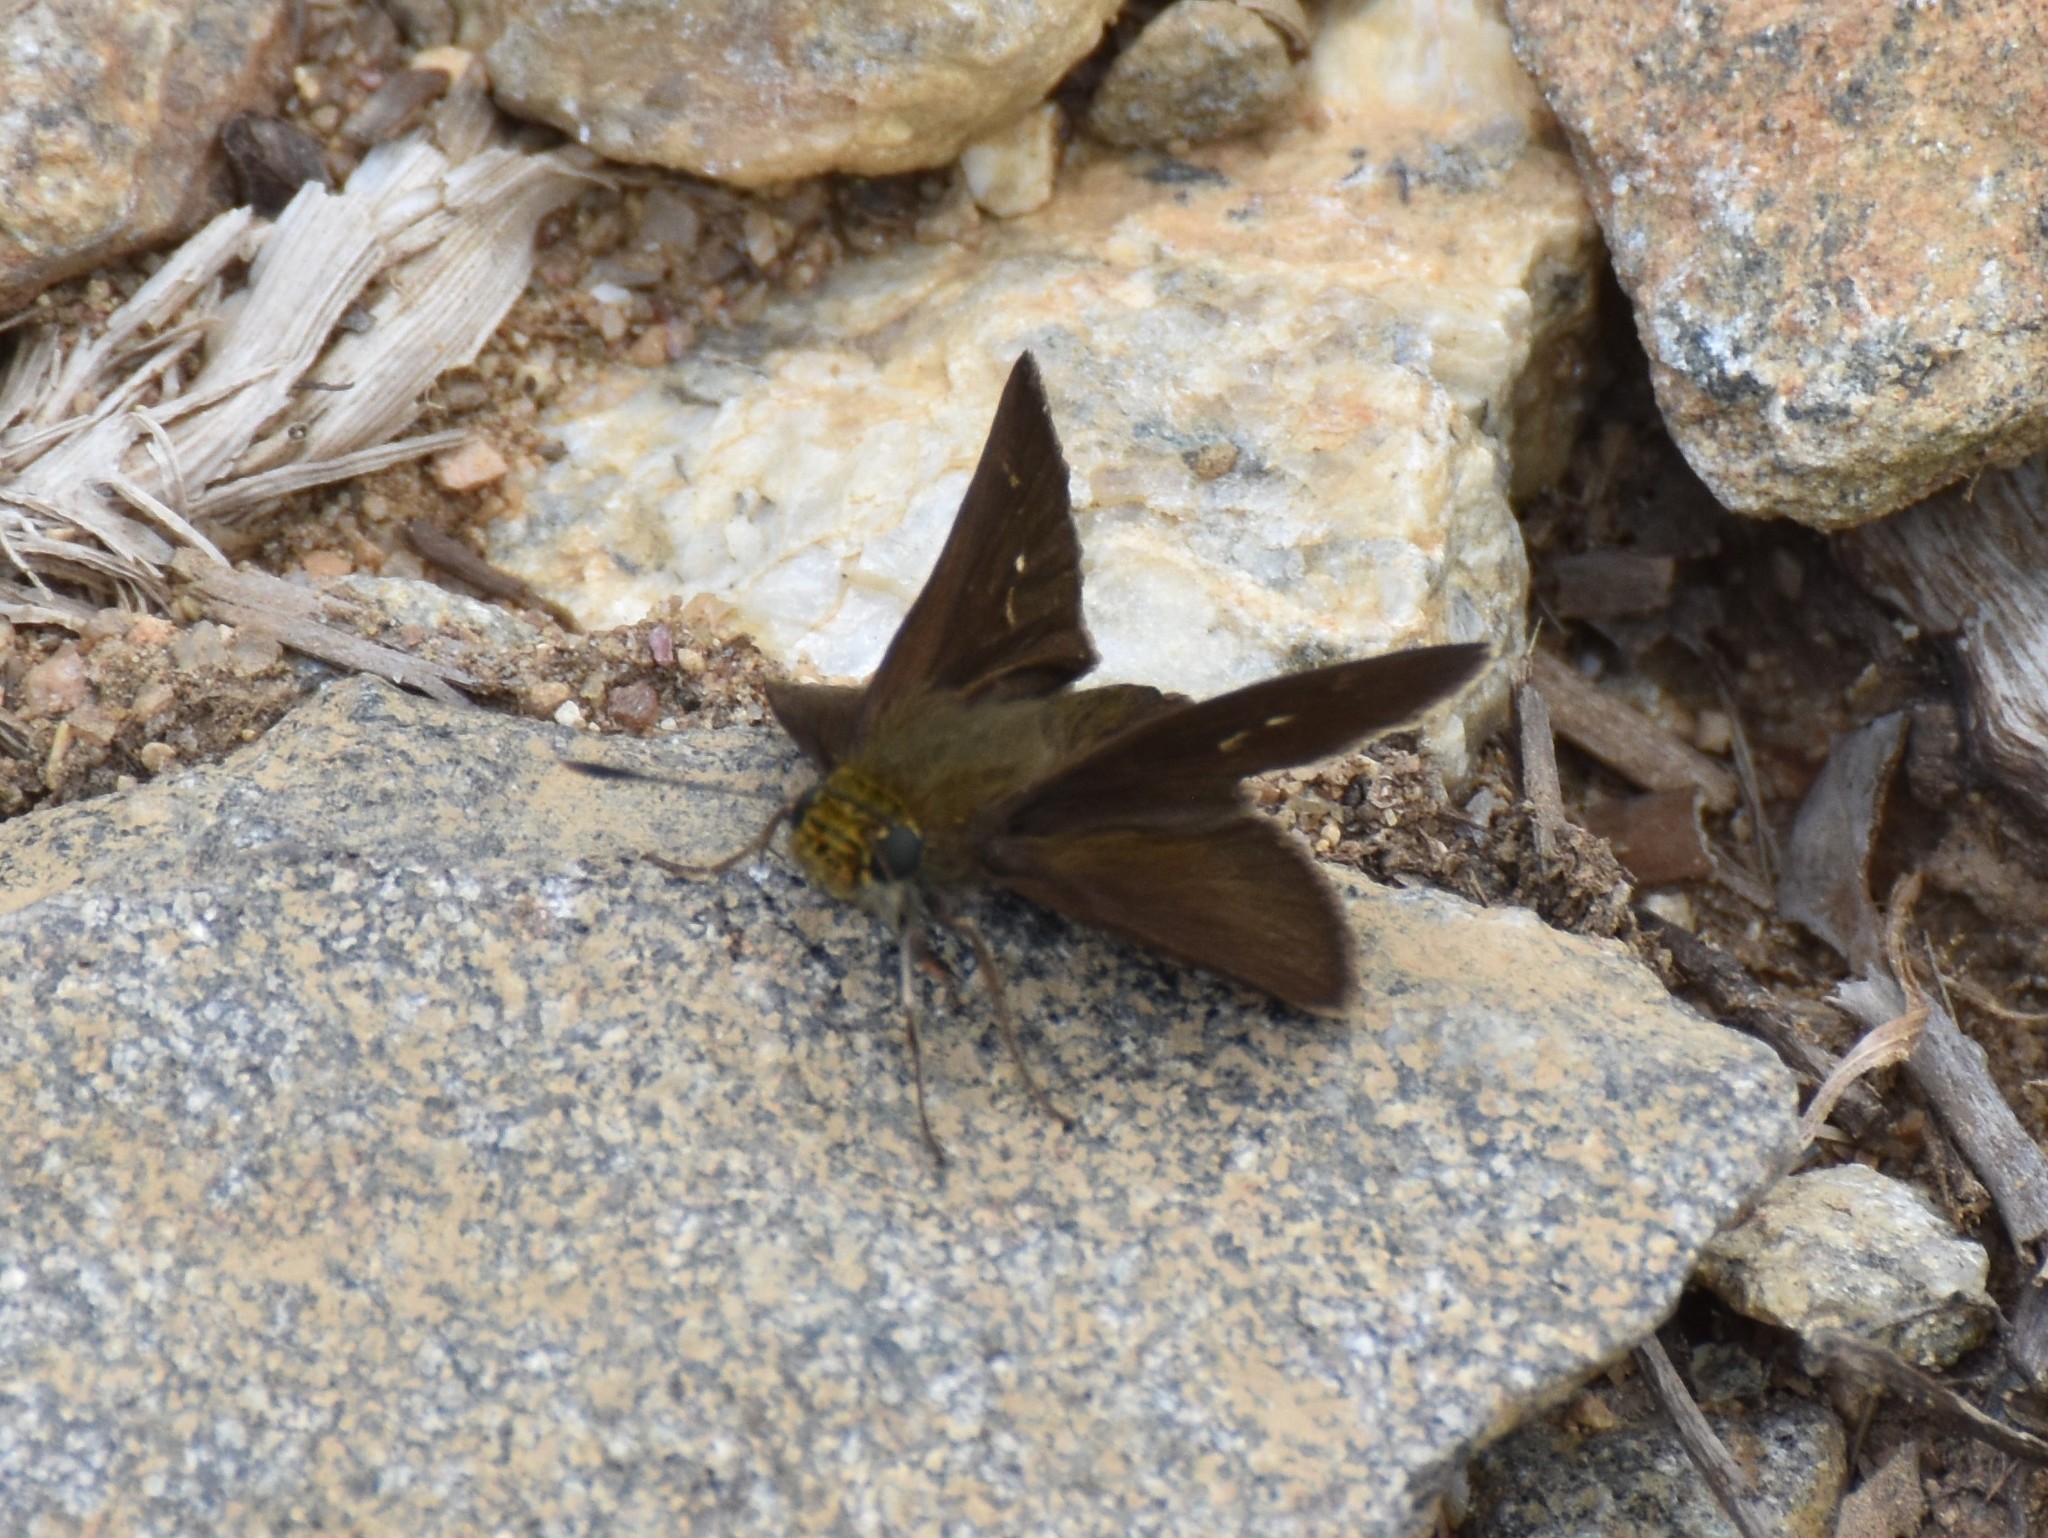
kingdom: Animalia
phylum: Arthropoda
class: Insecta
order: Lepidoptera
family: Hesperiidae
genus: Euphyes
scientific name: Euphyes vestris
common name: Dun skipper
